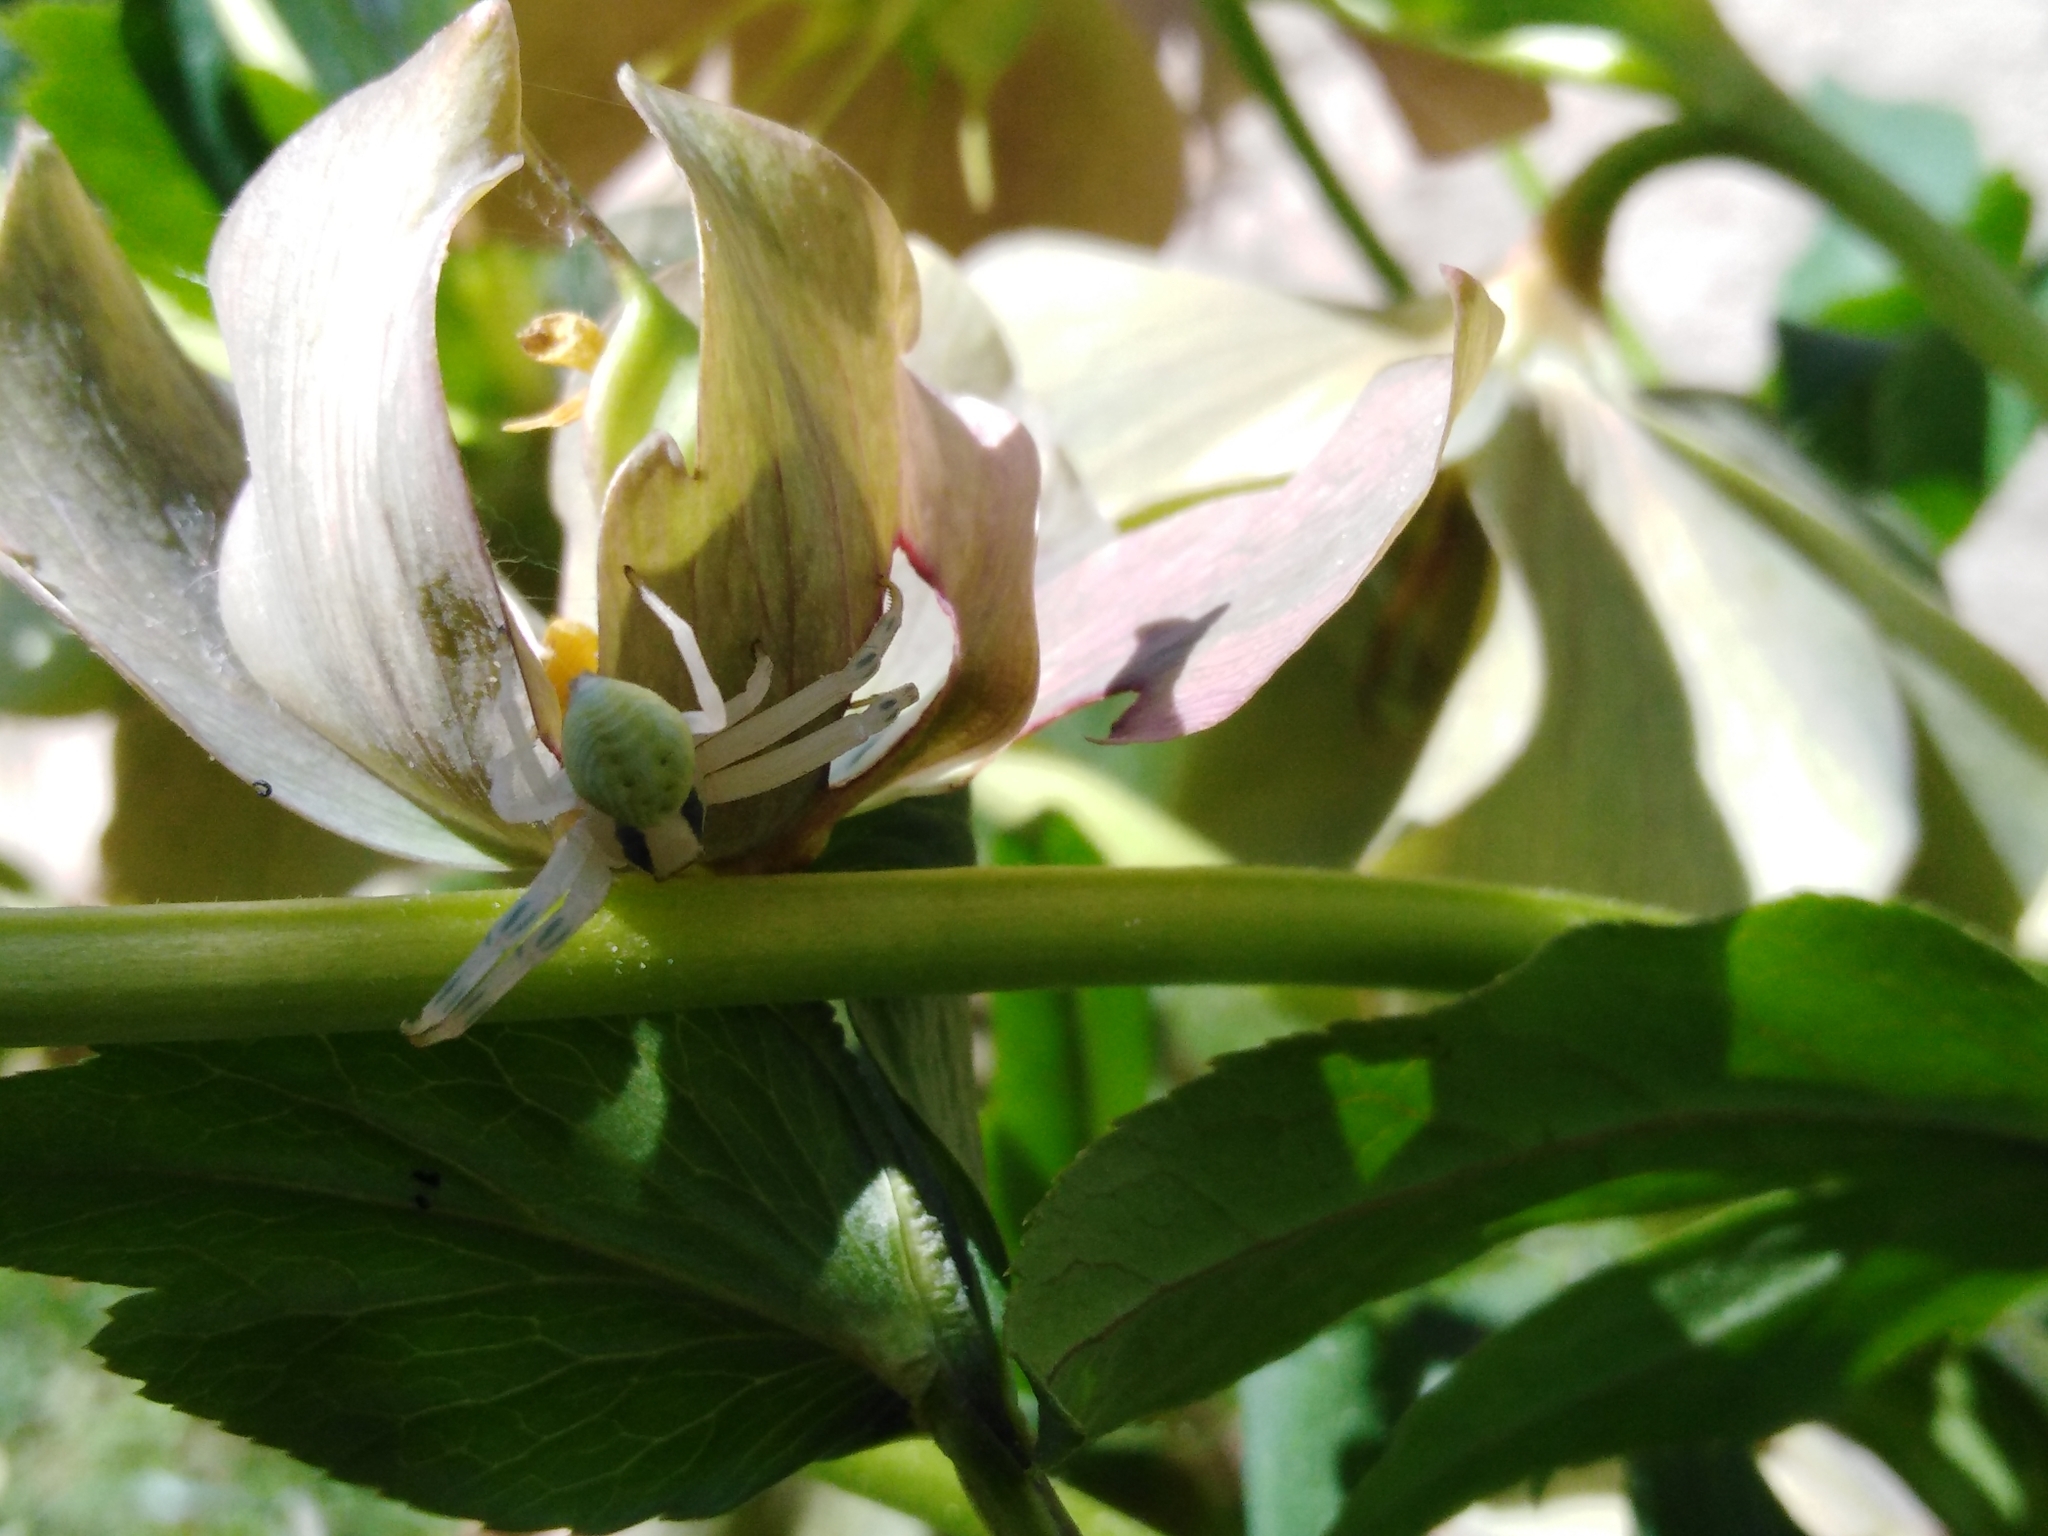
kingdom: Animalia
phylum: Arthropoda
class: Arachnida
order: Araneae
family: Thomisidae
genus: Misumena
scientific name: Misumena vatia
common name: Goldenrod crab spider
